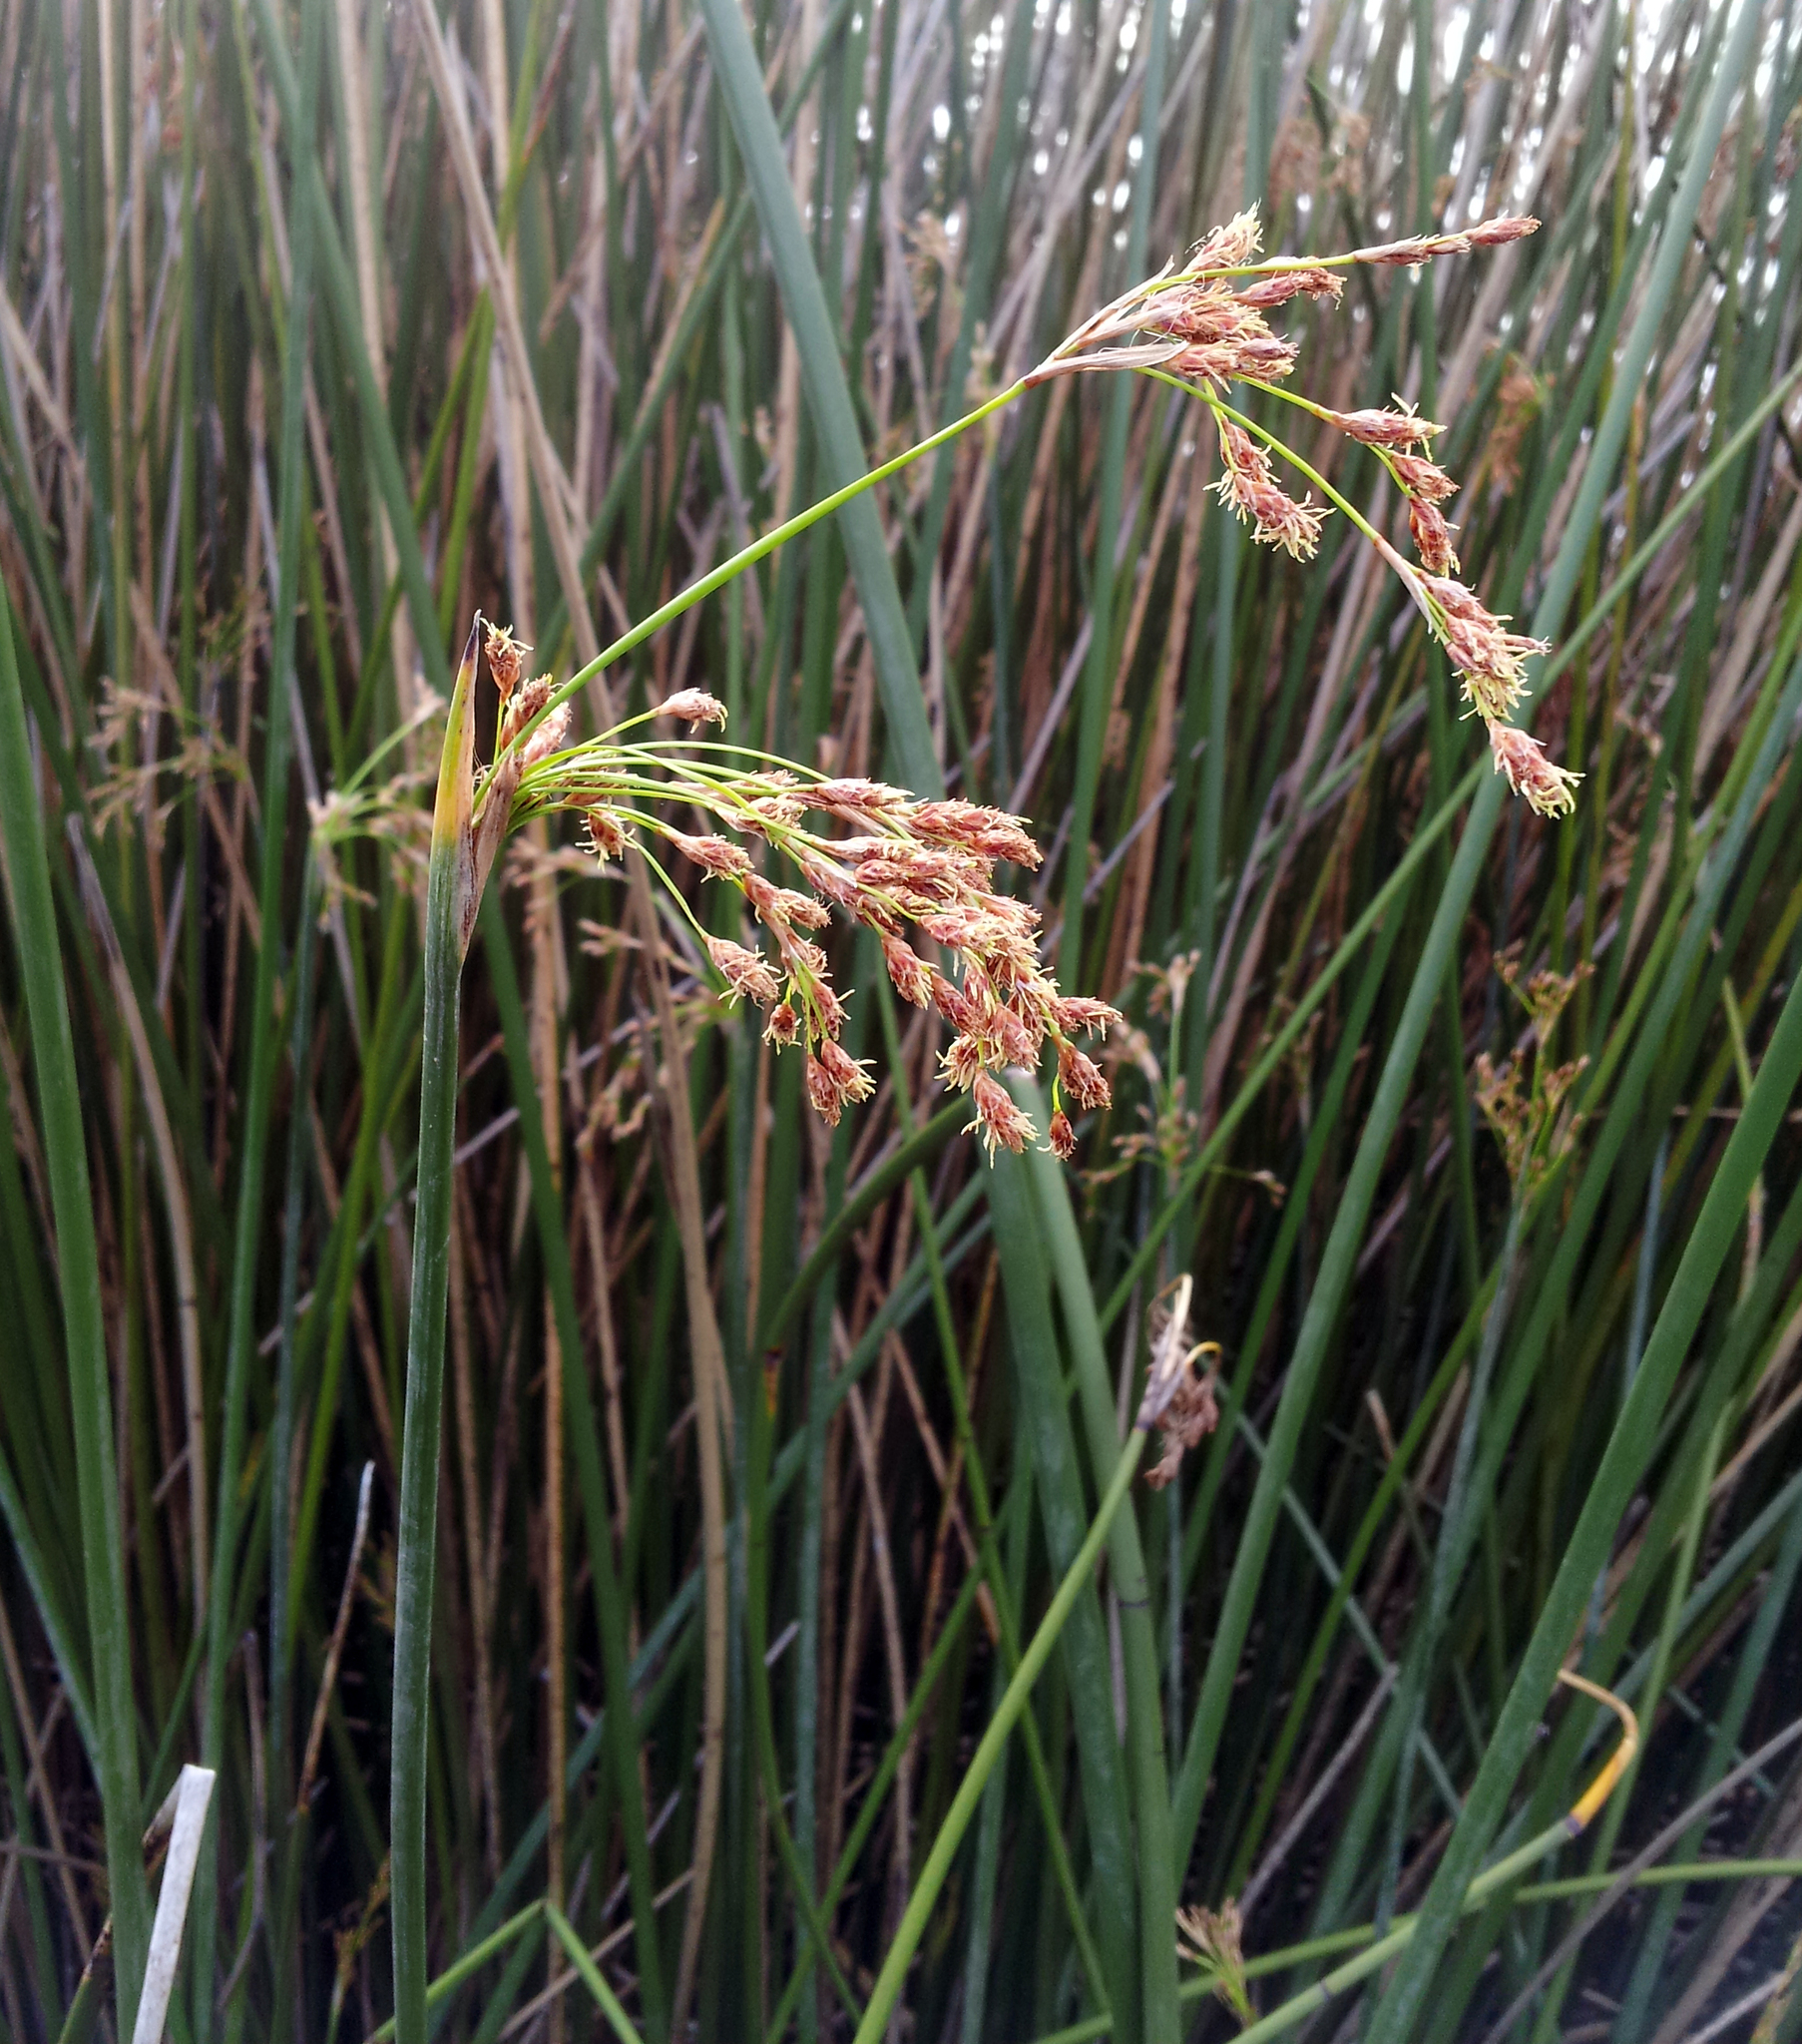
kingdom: Plantae
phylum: Tracheophyta
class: Liliopsida
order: Poales
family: Cyperaceae
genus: Schoenoplectus
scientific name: Schoenoplectus californicus
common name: California bulrush
